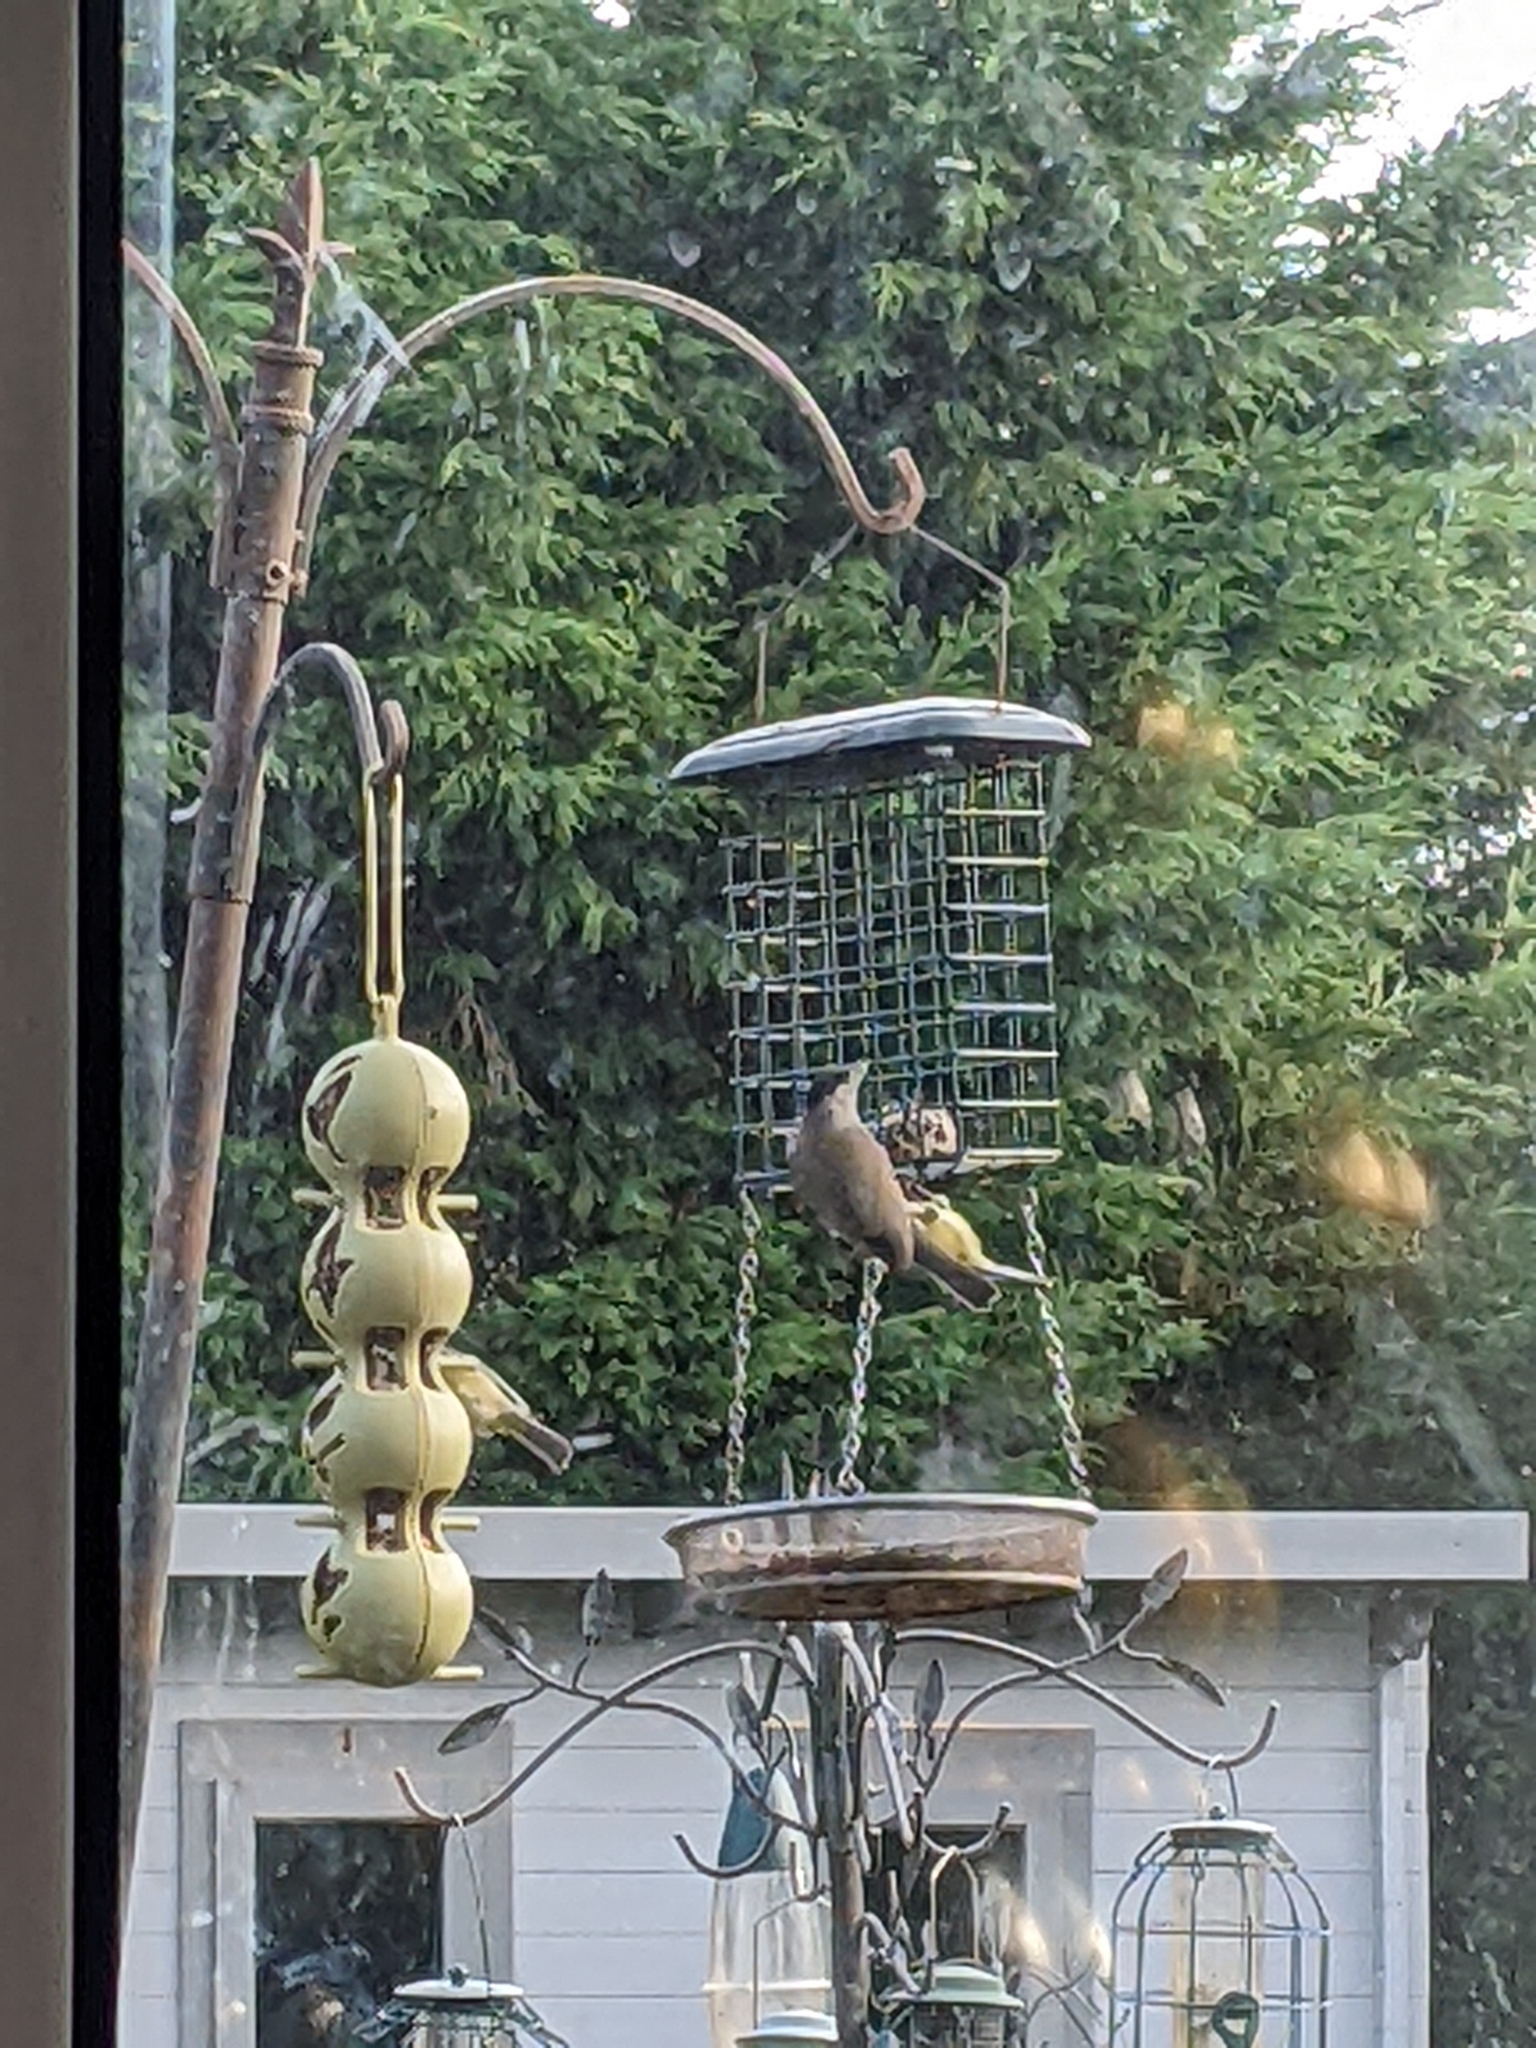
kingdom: Animalia
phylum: Chordata
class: Aves
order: Passeriformes
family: Sylviidae
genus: Sylvia
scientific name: Sylvia atricapilla
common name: Eurasian blackcap
